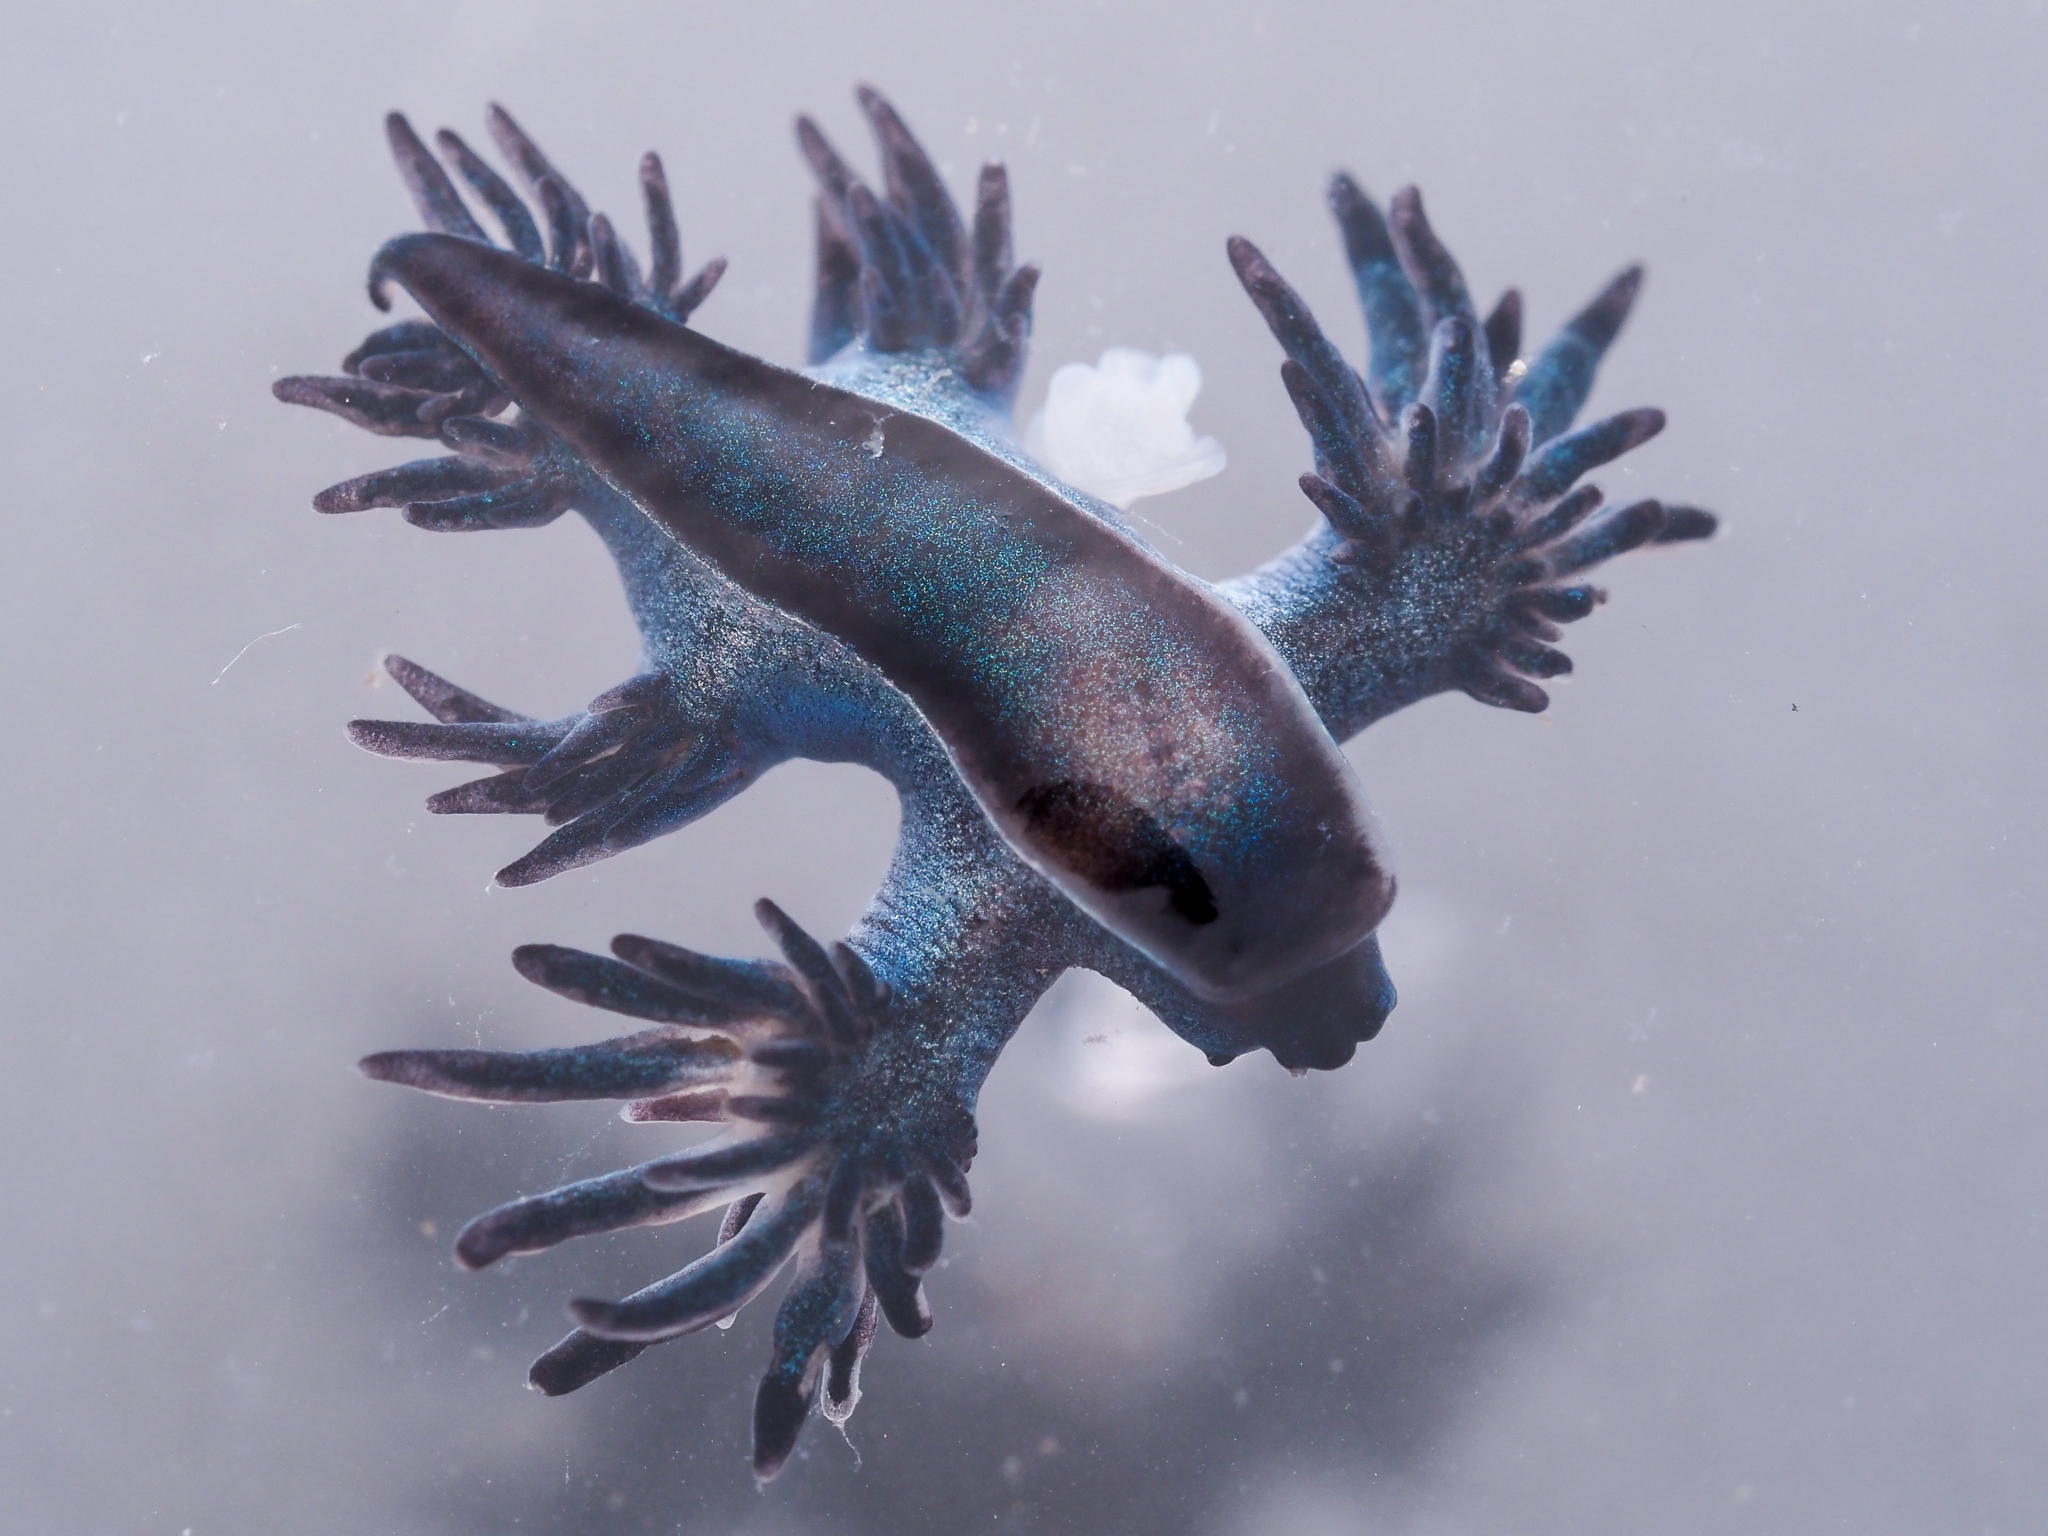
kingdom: Animalia
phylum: Mollusca
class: Gastropoda
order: Nudibranchia
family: Glaucidae
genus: Glaucilla
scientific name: Glaucilla bennettae
